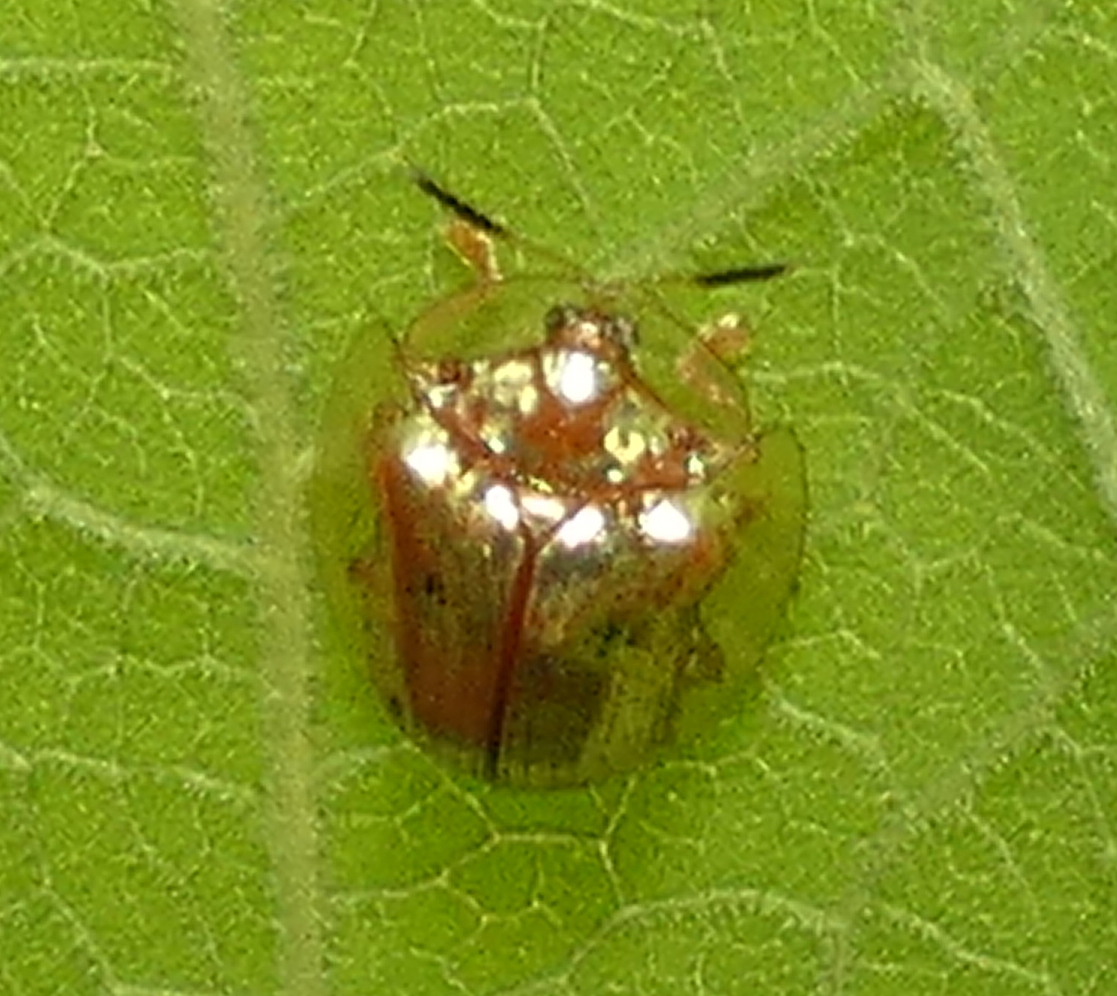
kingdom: Animalia
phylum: Arthropoda
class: Insecta
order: Coleoptera
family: Chrysomelidae
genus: Charidotella
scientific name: Charidotella sexpunctata
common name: Golden tortoise beetle
